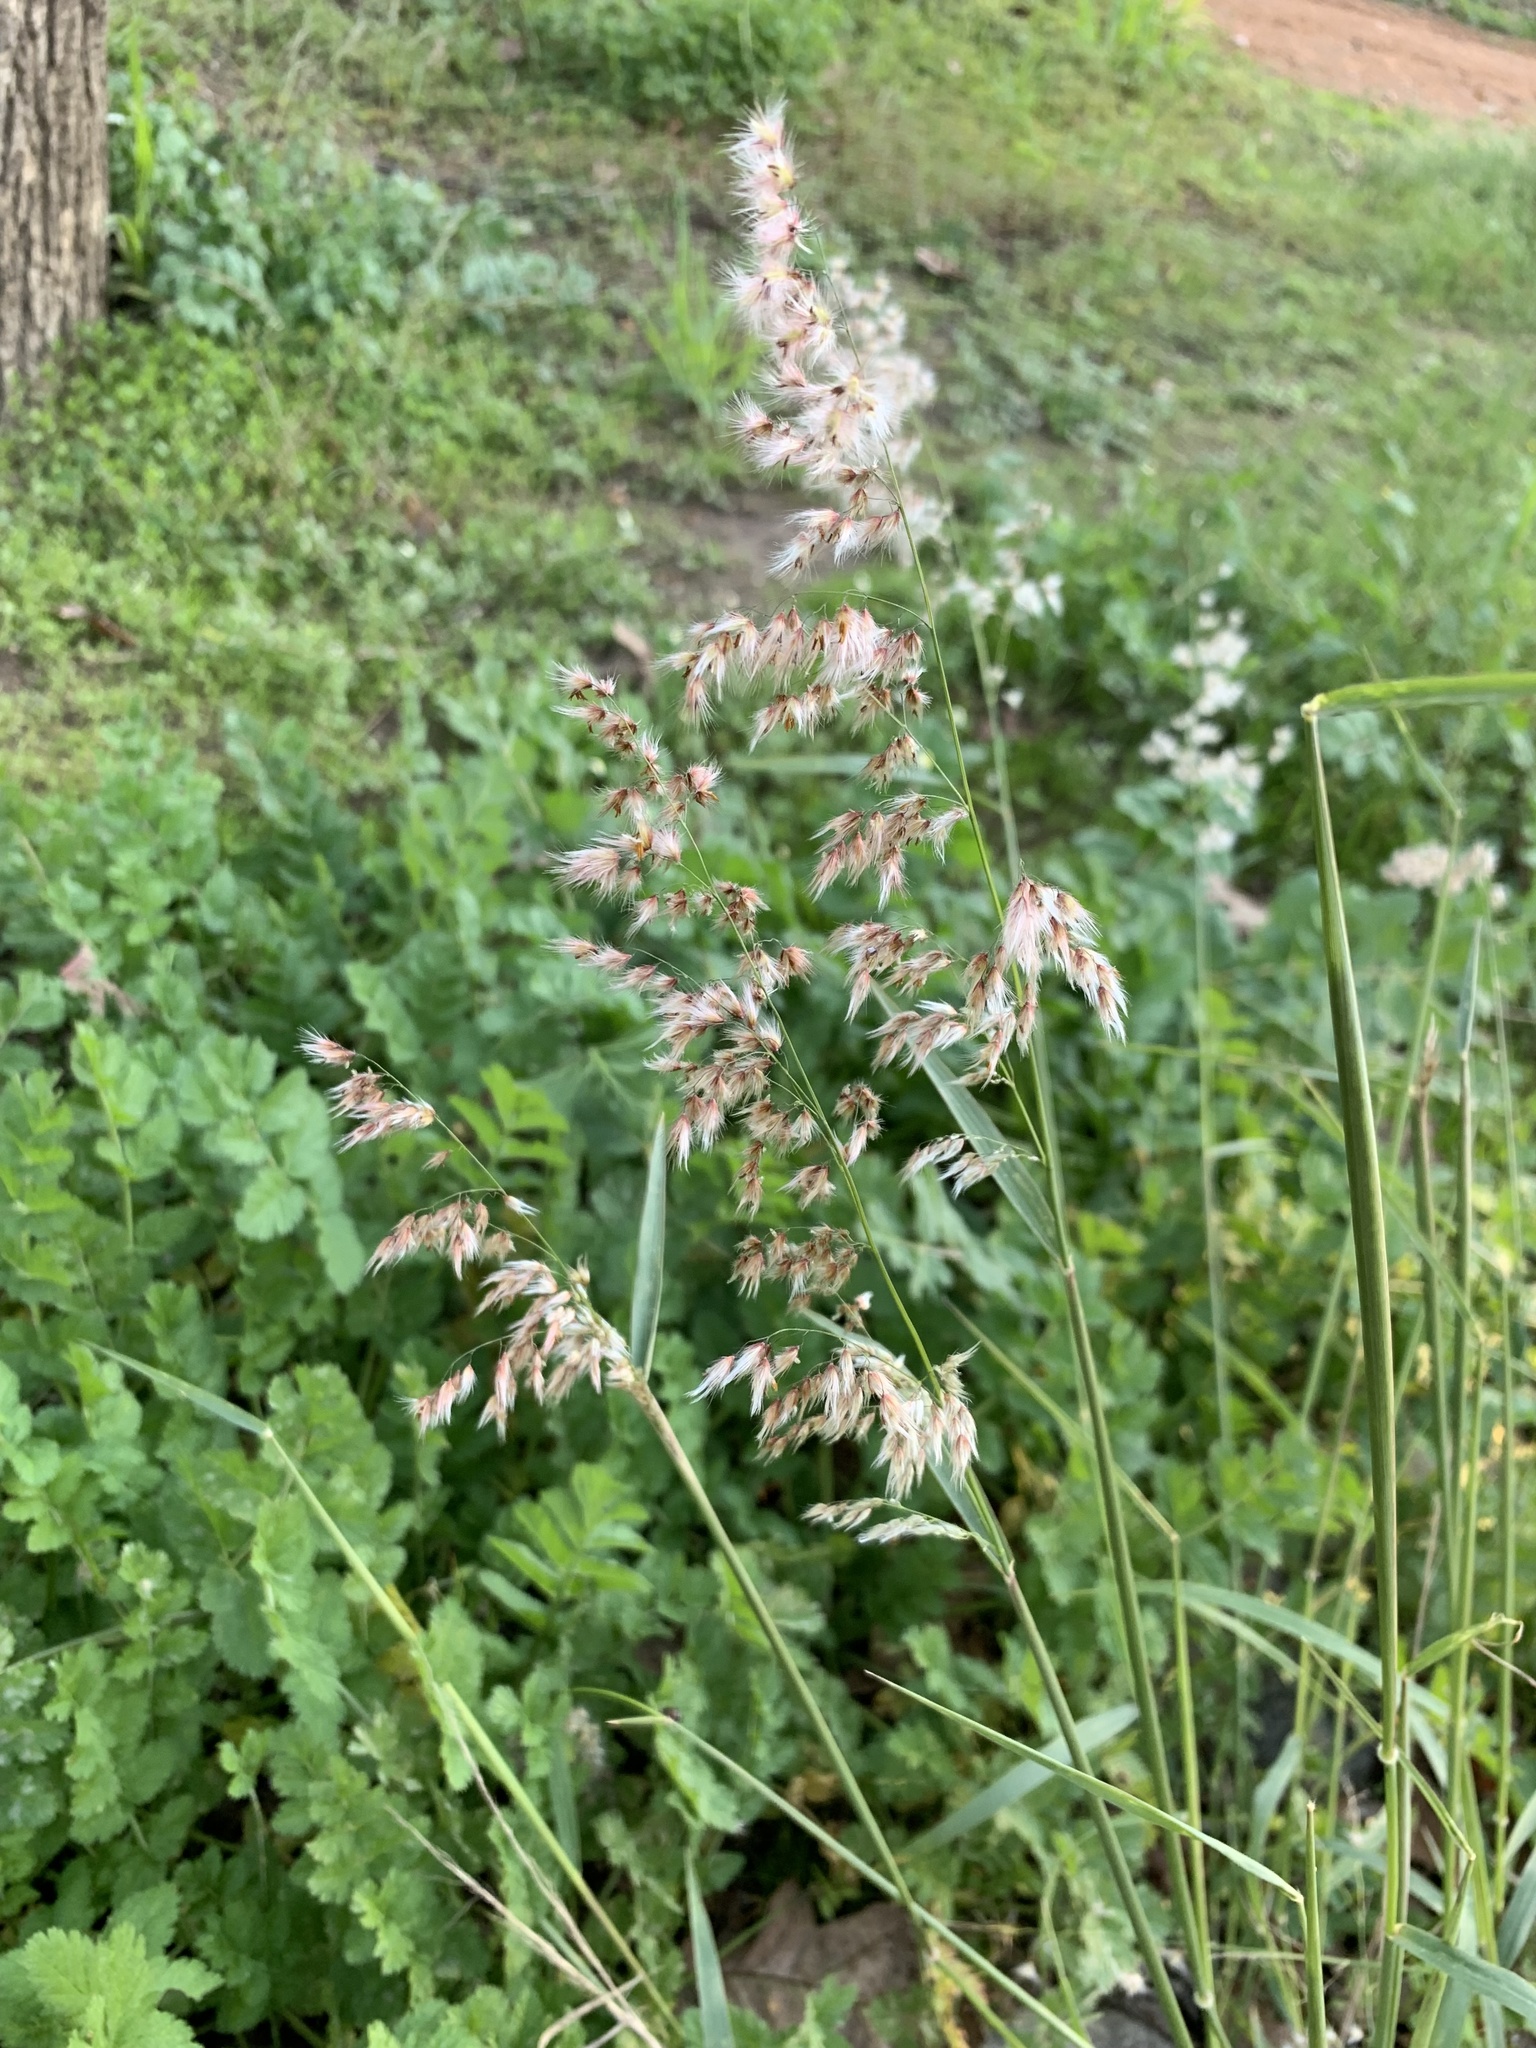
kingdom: Plantae
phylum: Tracheophyta
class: Liliopsida
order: Poales
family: Poaceae
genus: Melinis
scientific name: Melinis repens
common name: Rose natal grass
